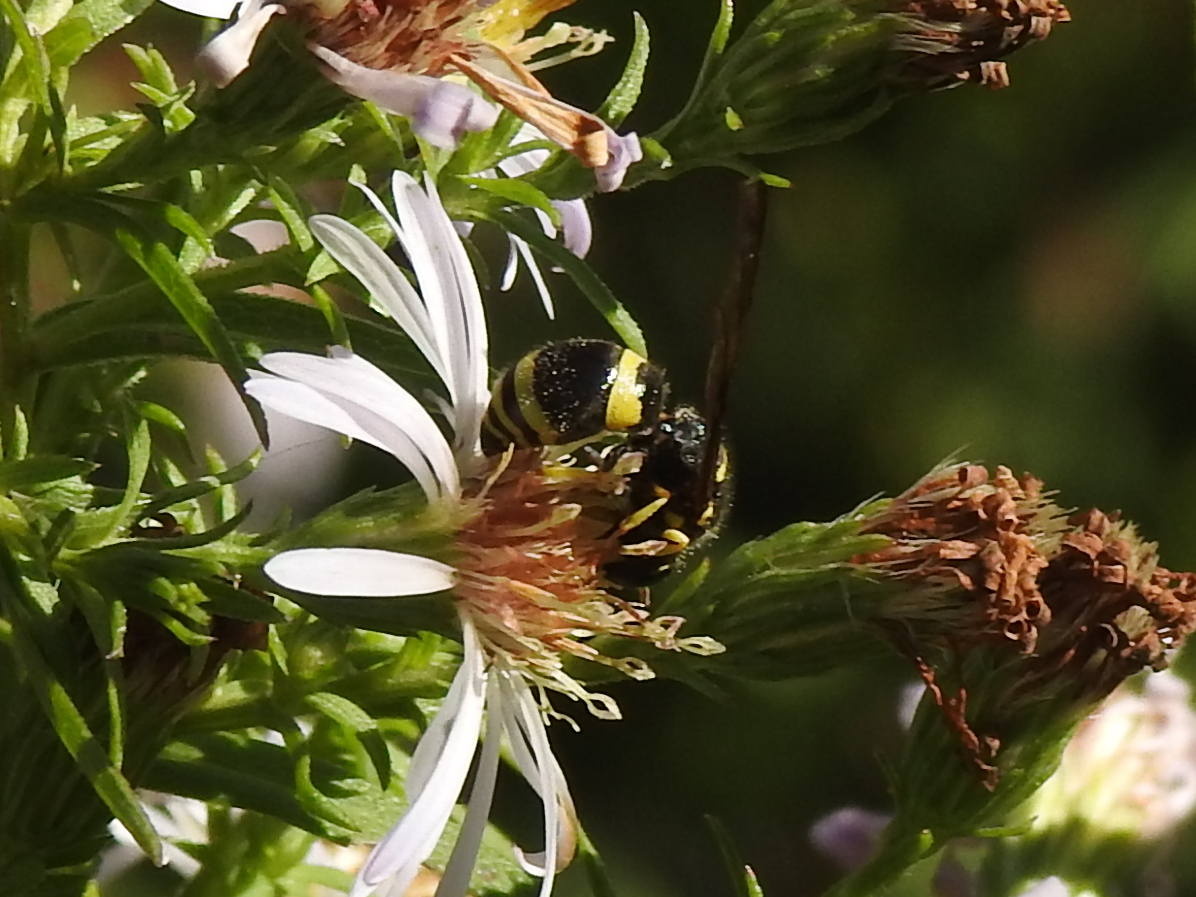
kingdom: Animalia
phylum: Arthropoda
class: Insecta
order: Hymenoptera
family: Vespidae
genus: Ancistrocerus
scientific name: Ancistrocerus gazella
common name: European tube wasp
